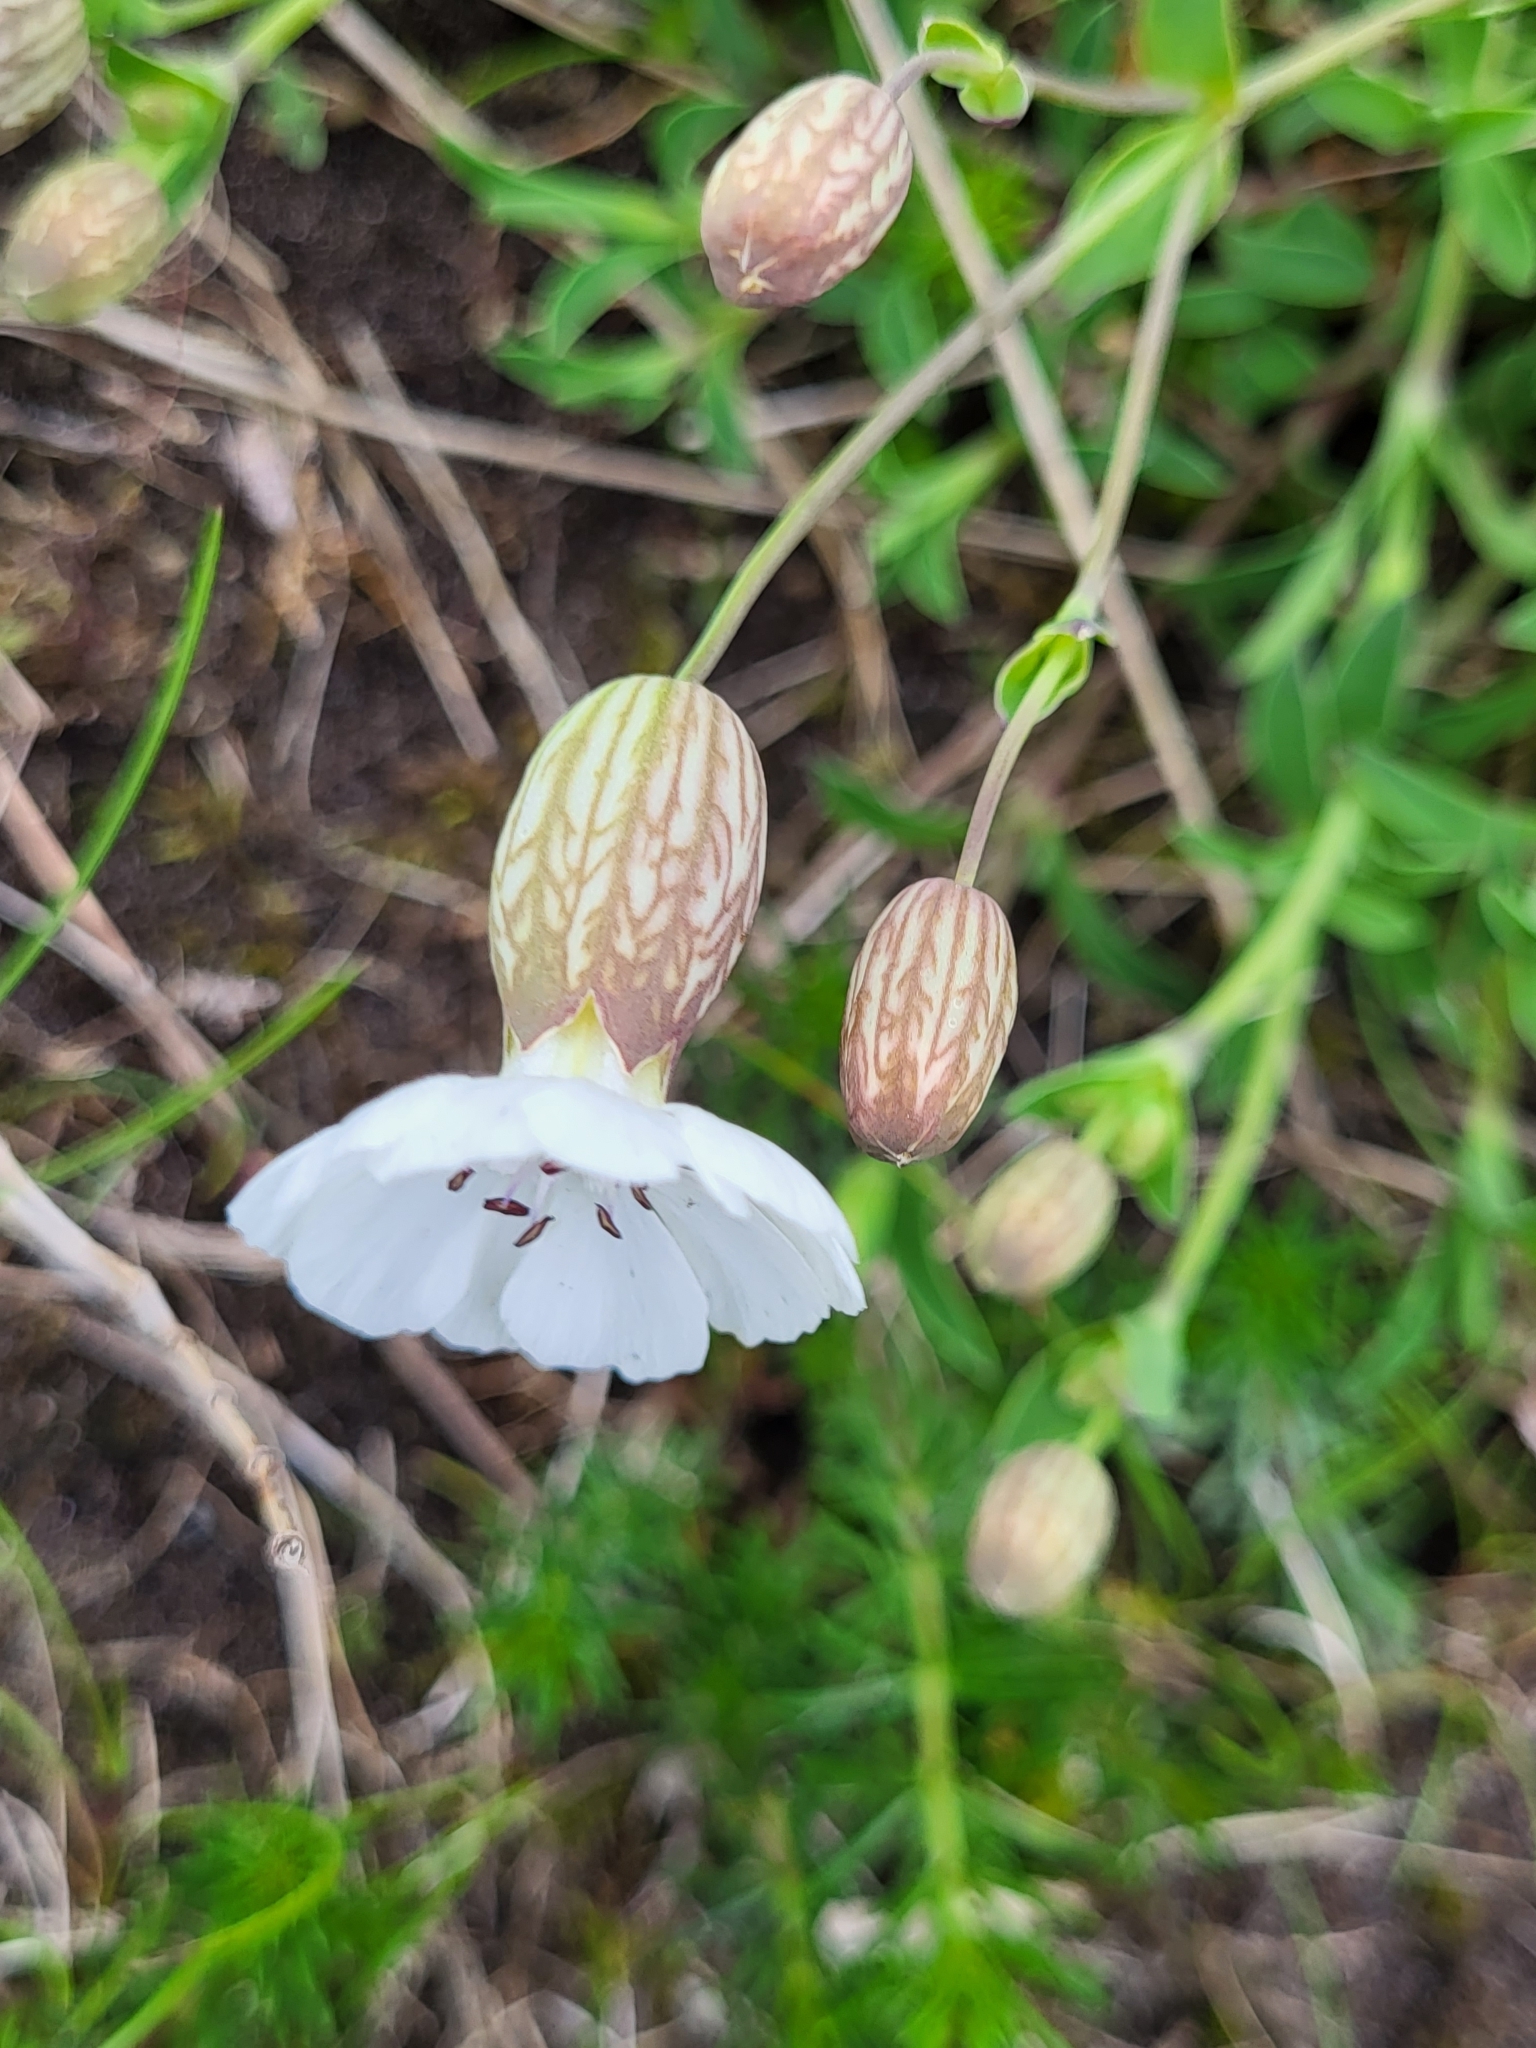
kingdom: Plantae
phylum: Tracheophyta
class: Magnoliopsida
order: Caryophyllales
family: Caryophyllaceae
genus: Silene
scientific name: Silene uniflora
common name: Sea campion
